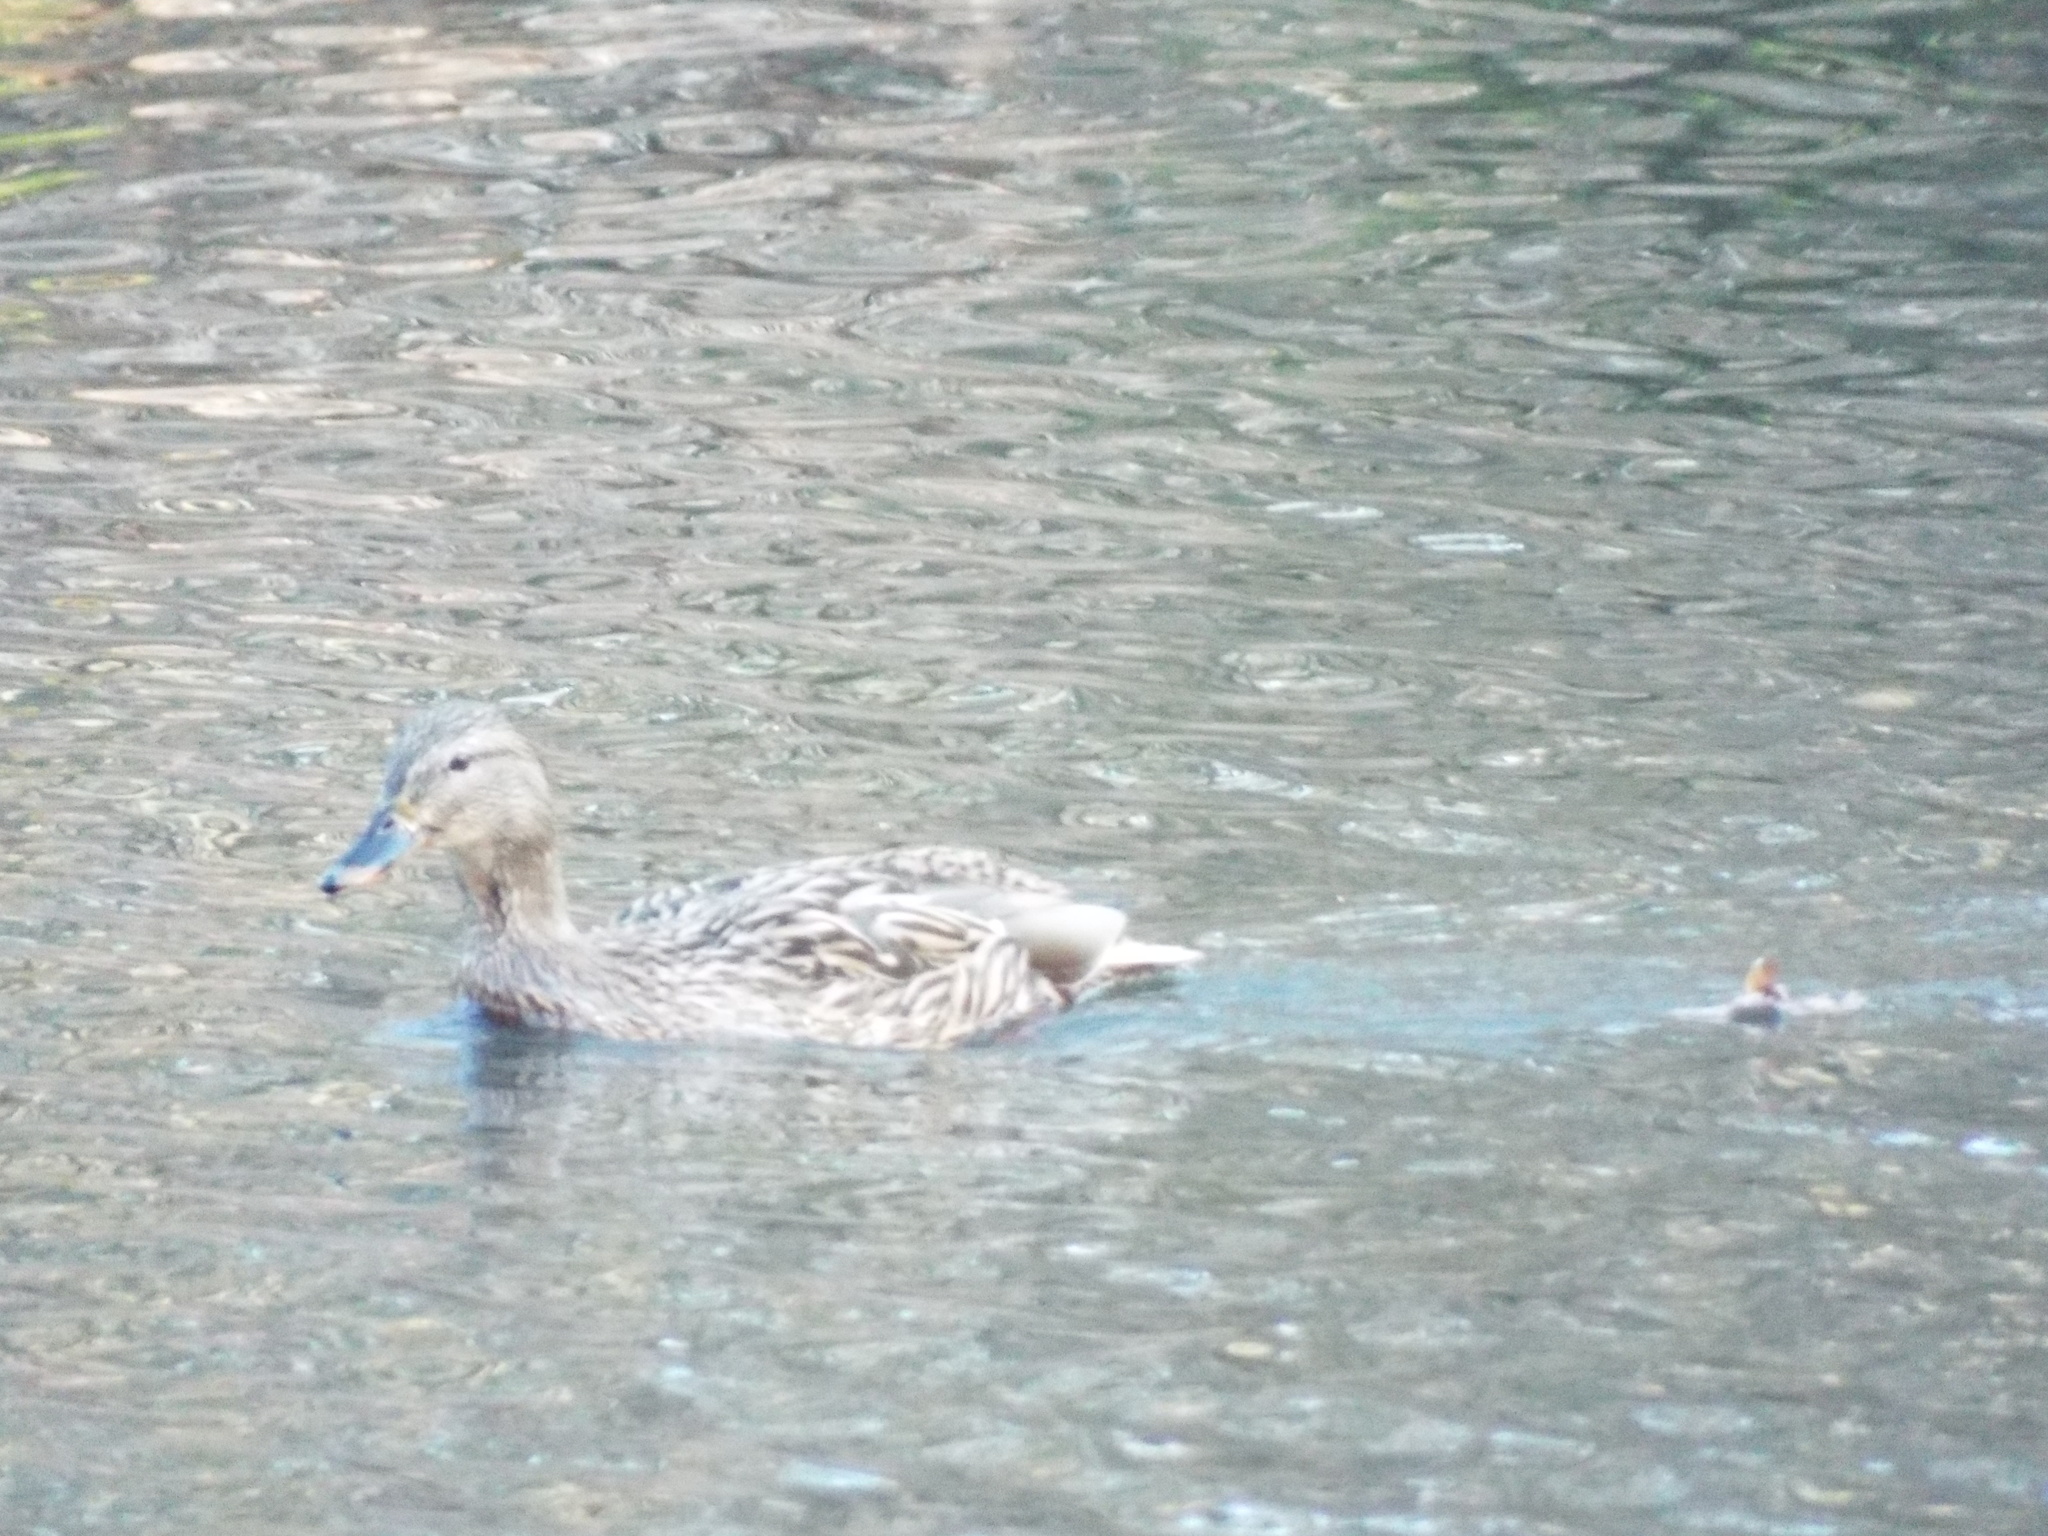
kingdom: Animalia
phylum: Chordata
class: Aves
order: Anseriformes
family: Anatidae
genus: Anas
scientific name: Anas platyrhynchos
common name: Mallard
